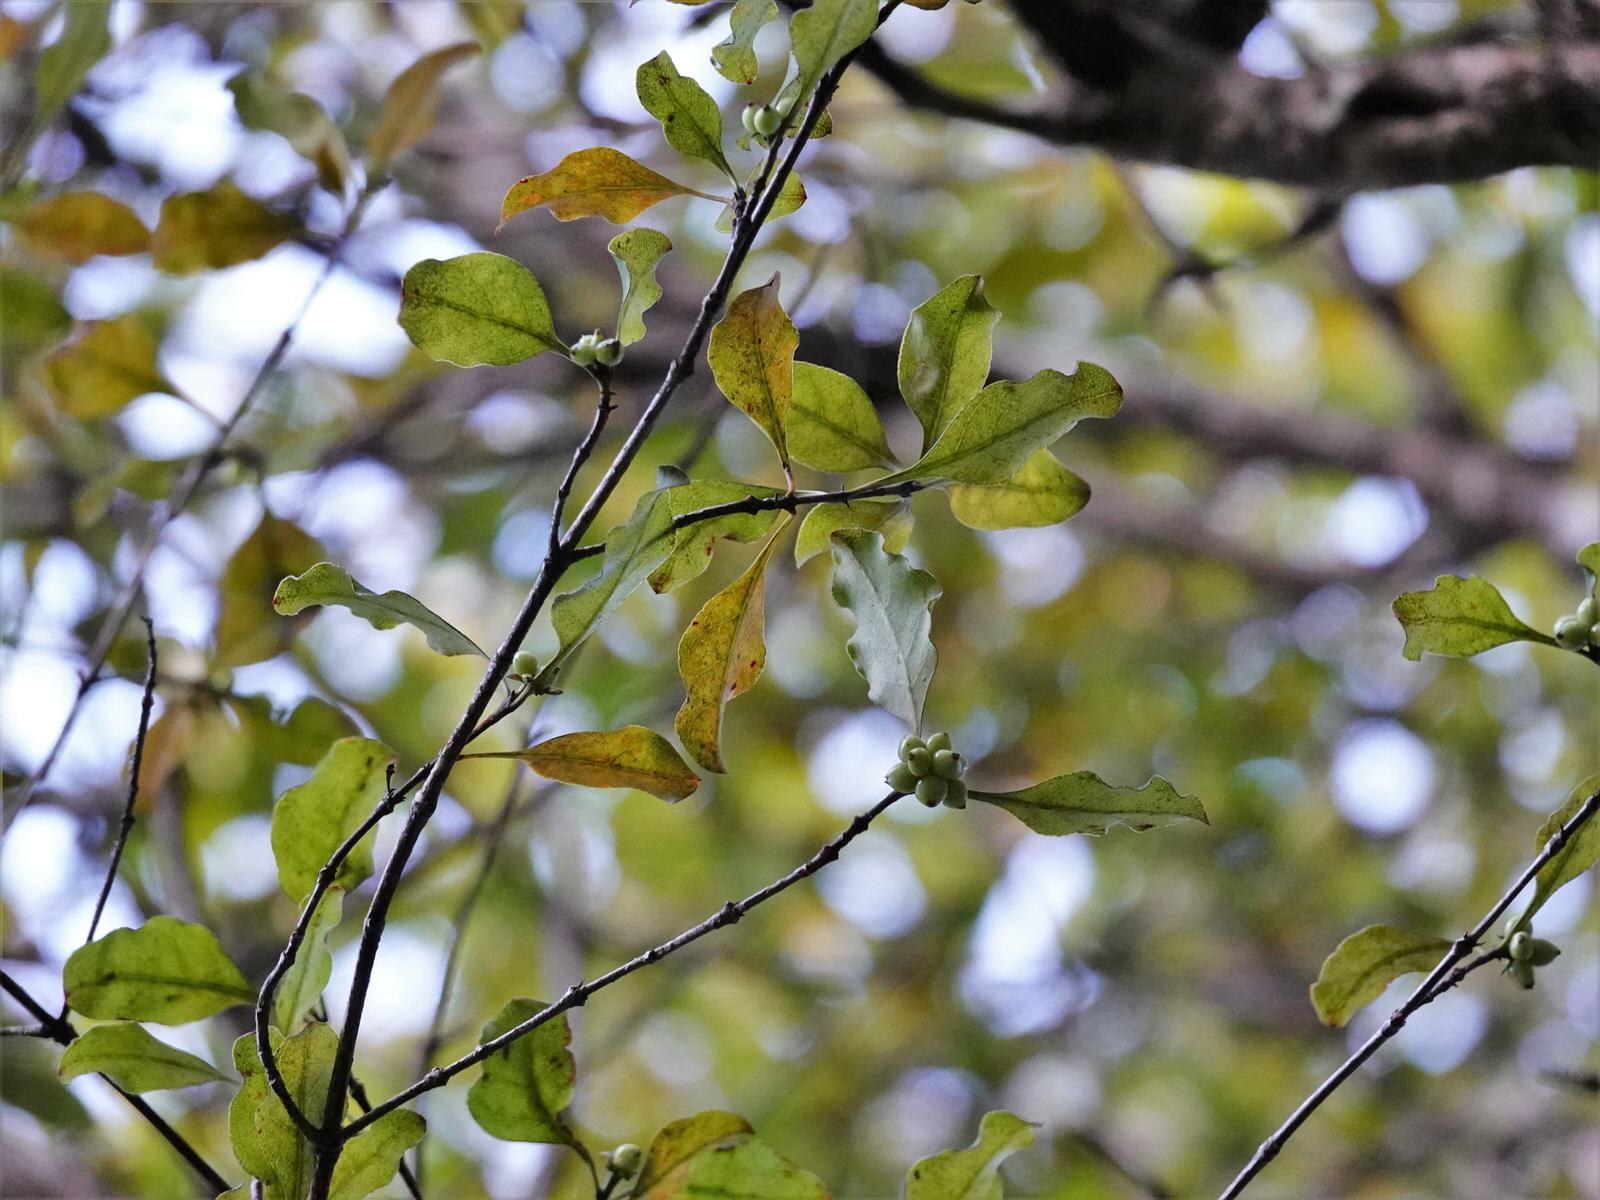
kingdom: Plantae
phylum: Tracheophyta
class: Magnoliopsida
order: Gentianales
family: Rubiaceae
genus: Coprosma
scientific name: Coprosma arborea
